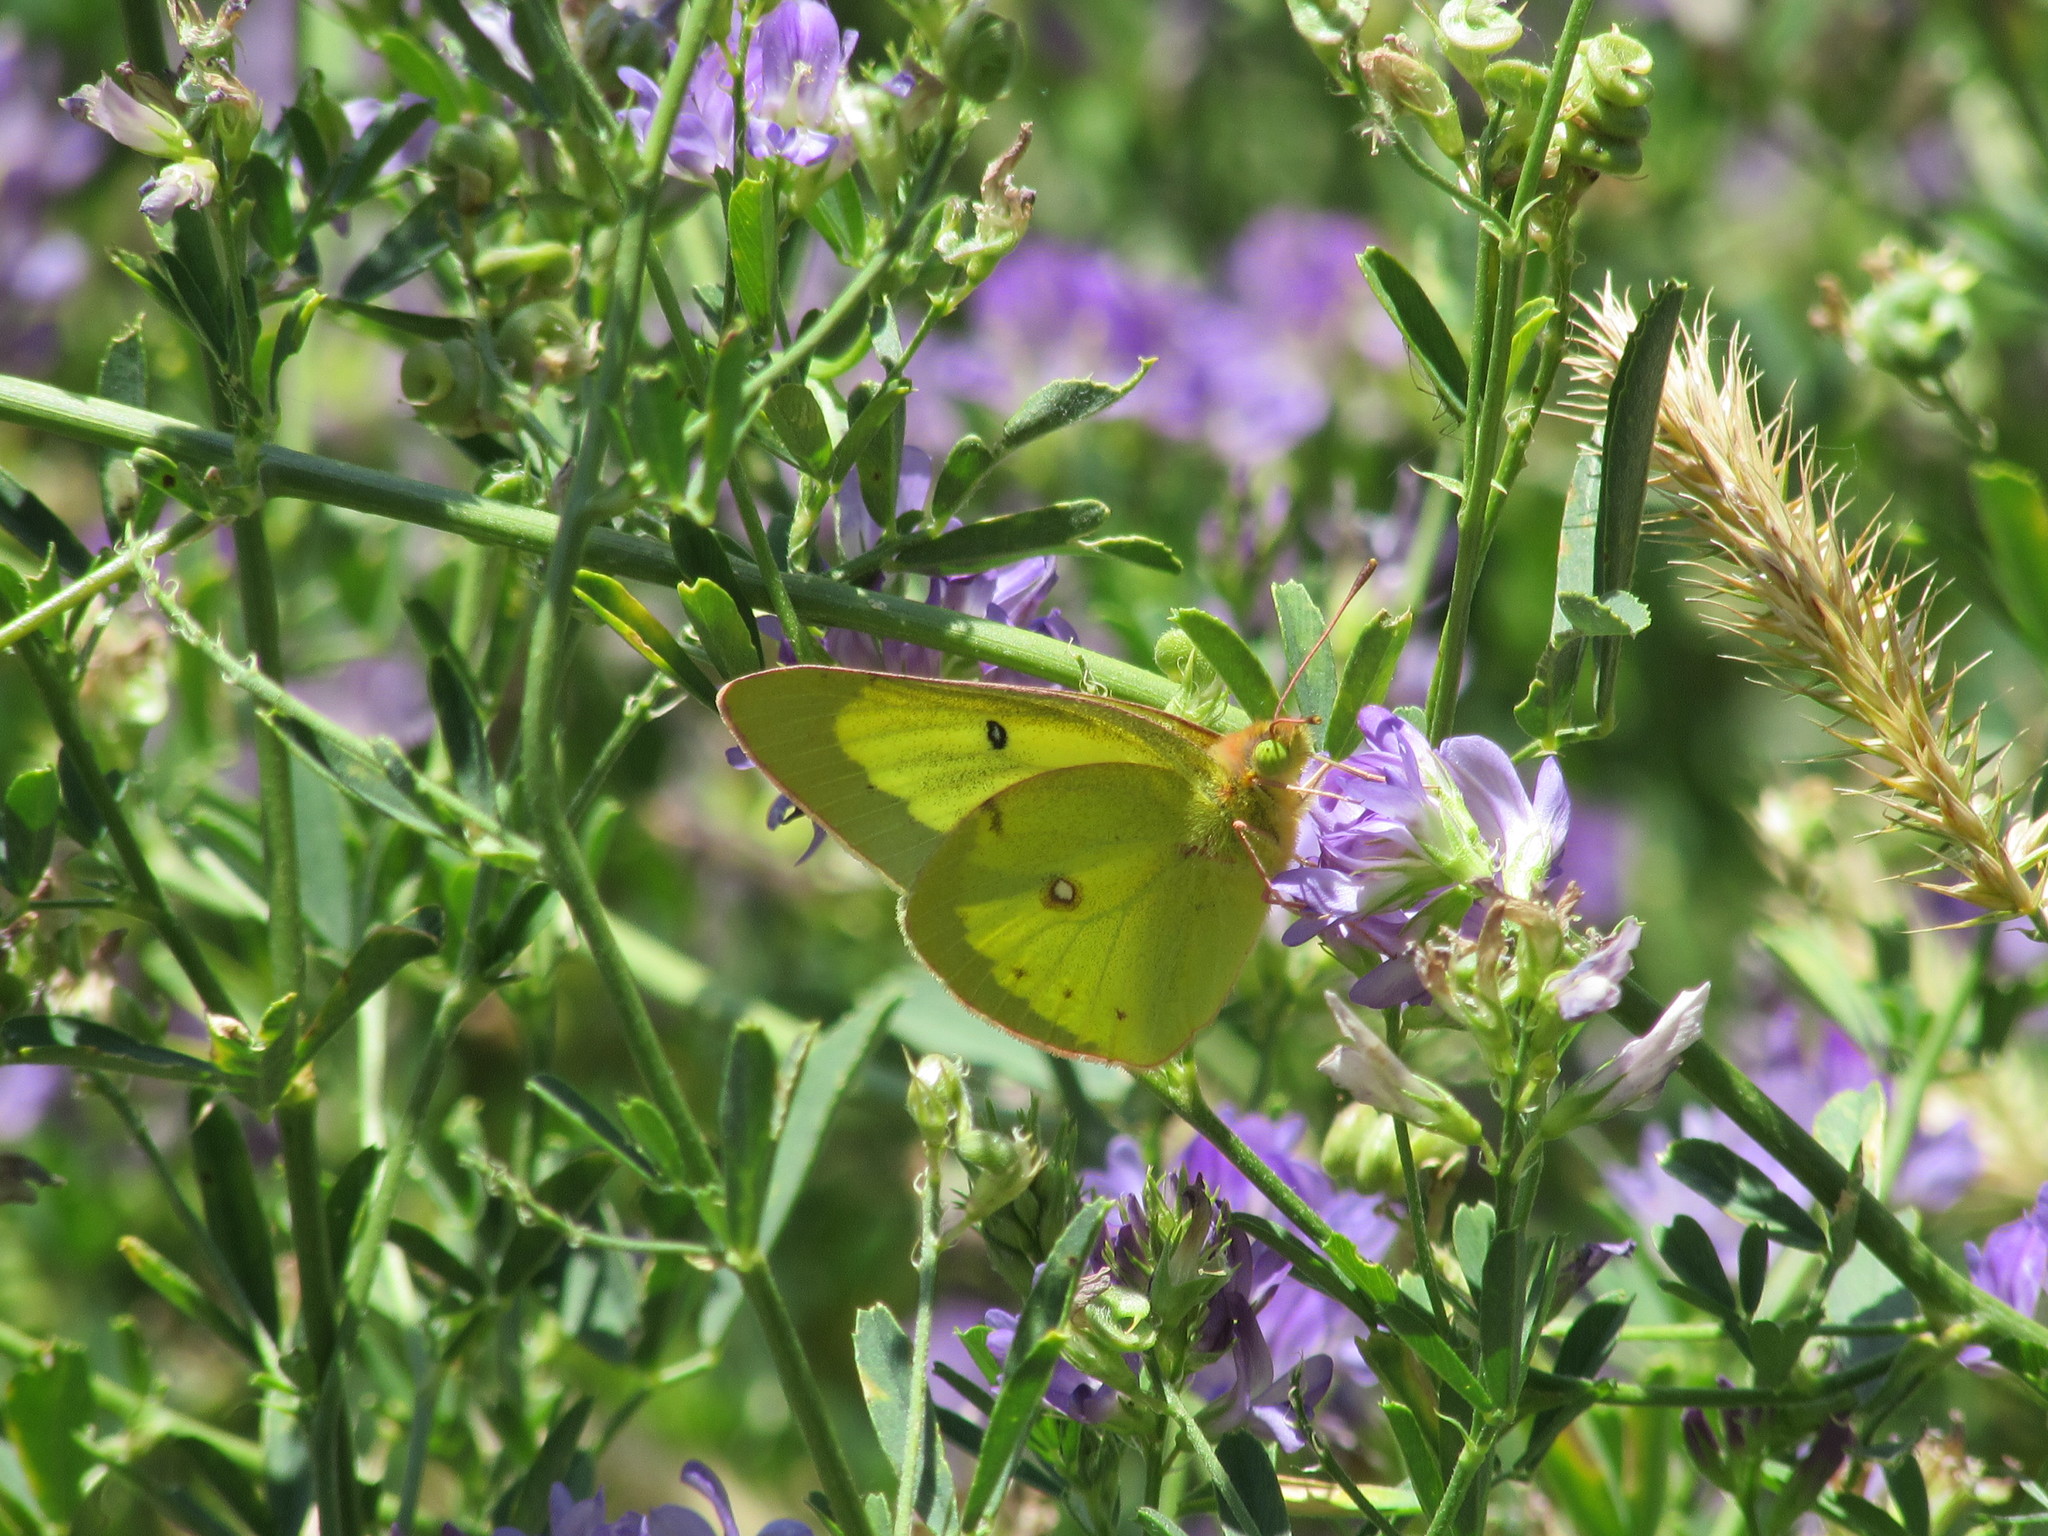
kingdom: Animalia
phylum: Arthropoda
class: Insecta
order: Lepidoptera
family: Pieridae
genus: Colias
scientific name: Colias philodice
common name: Clouded sulphur
